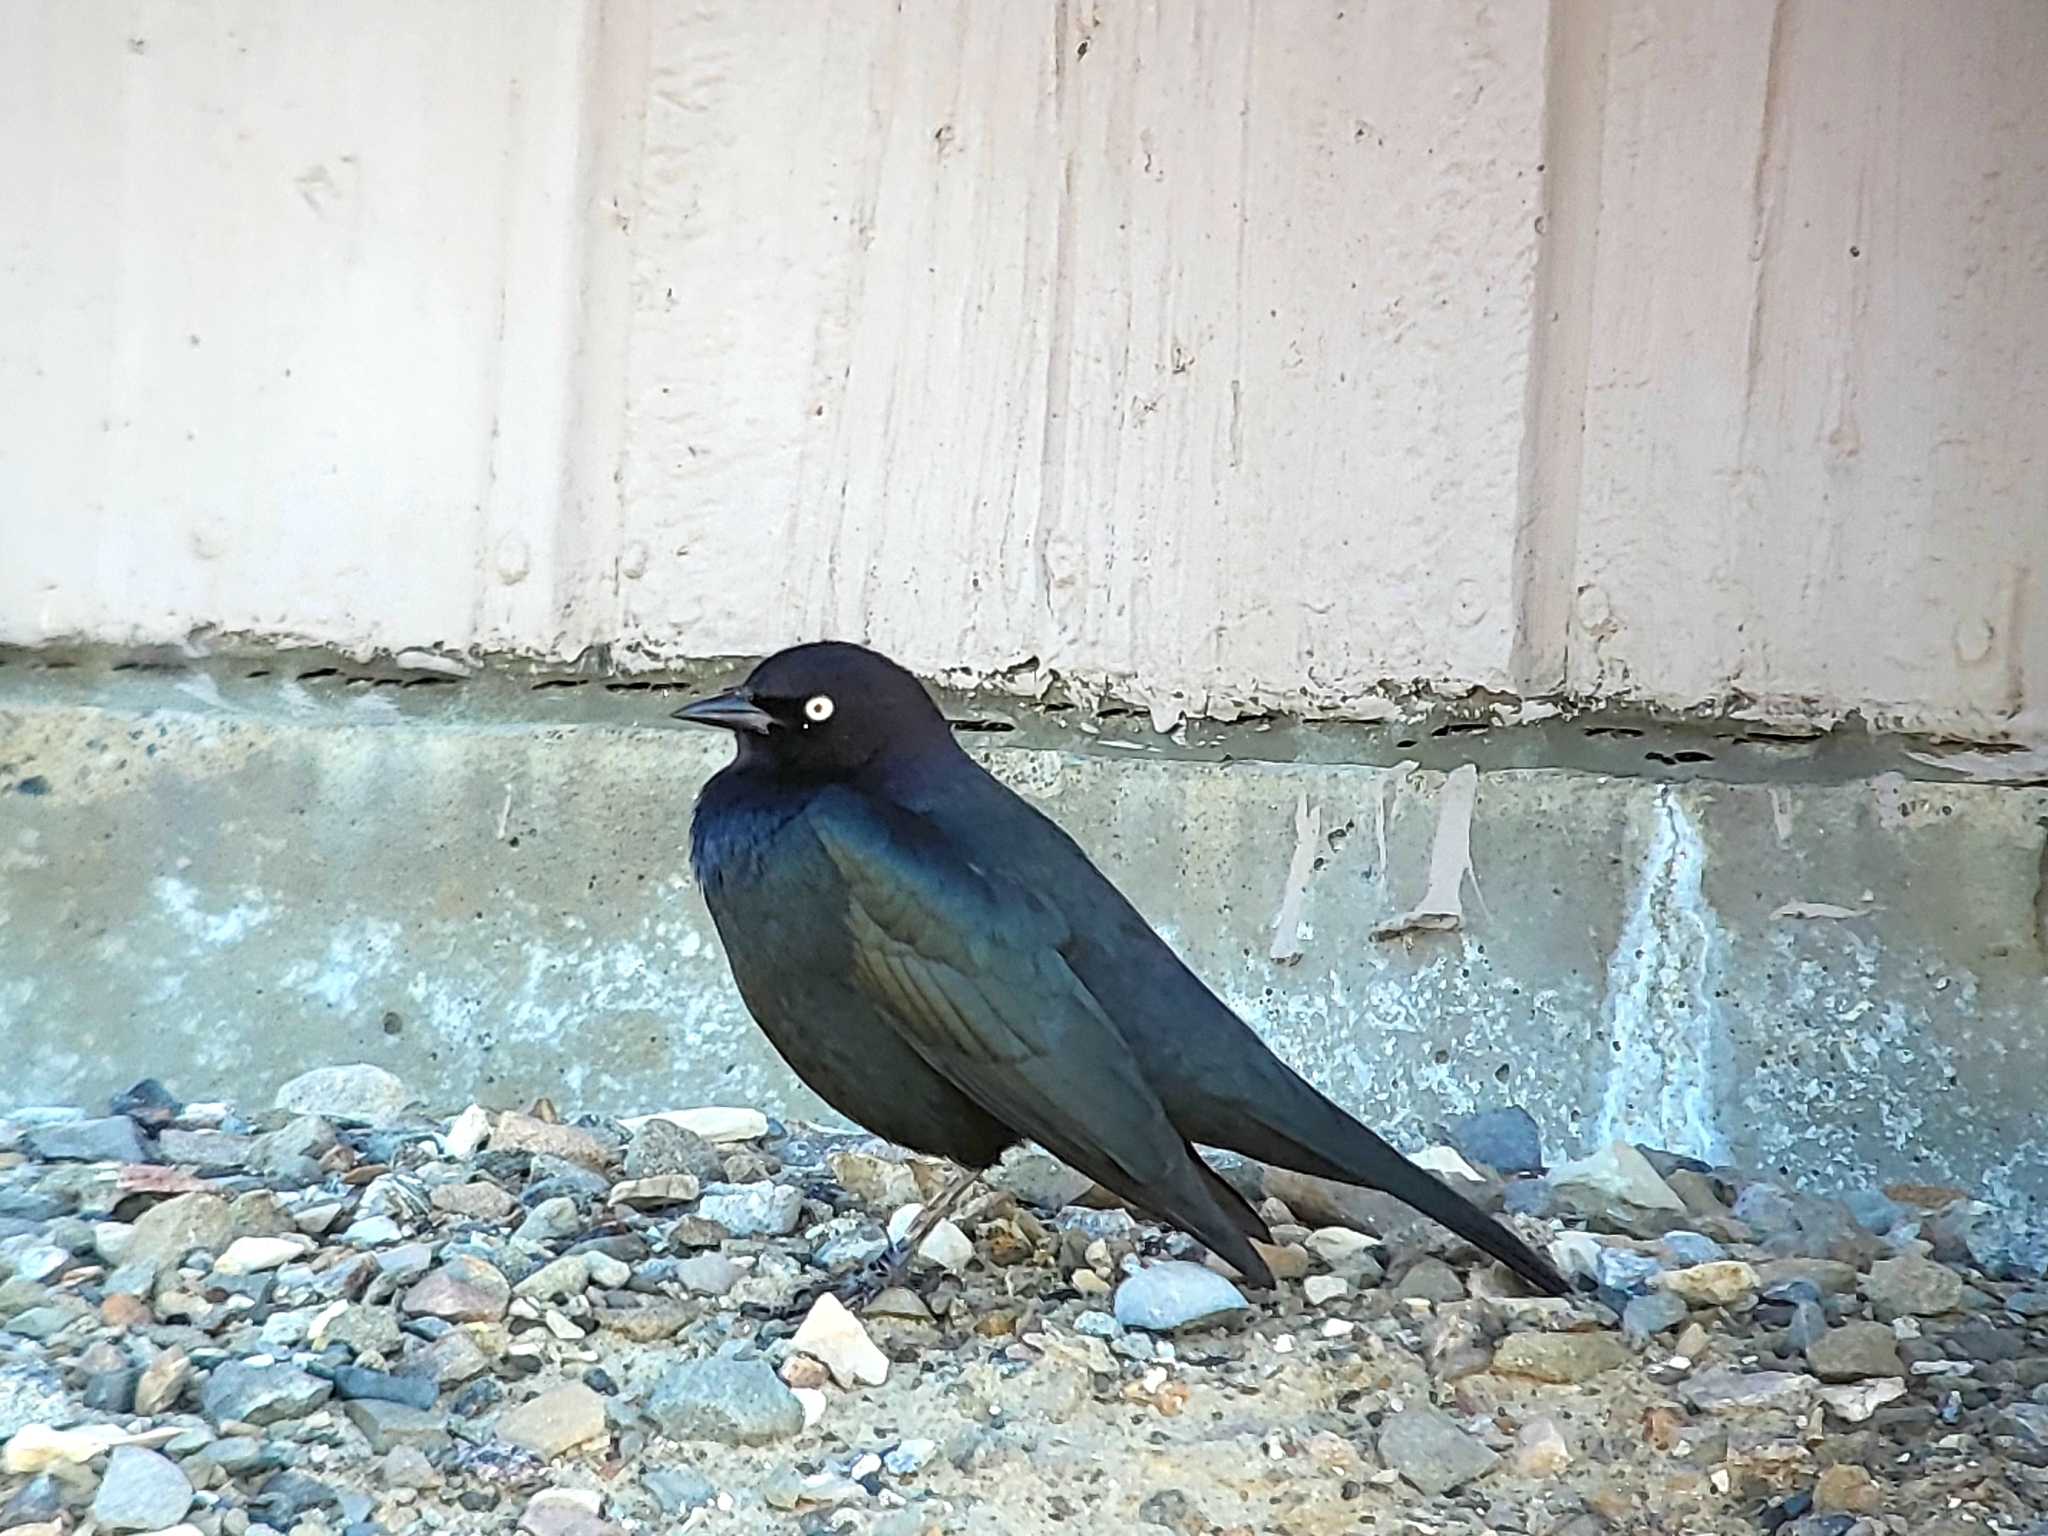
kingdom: Animalia
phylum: Chordata
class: Aves
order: Passeriformes
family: Icteridae
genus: Euphagus
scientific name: Euphagus cyanocephalus
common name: Brewer's blackbird
